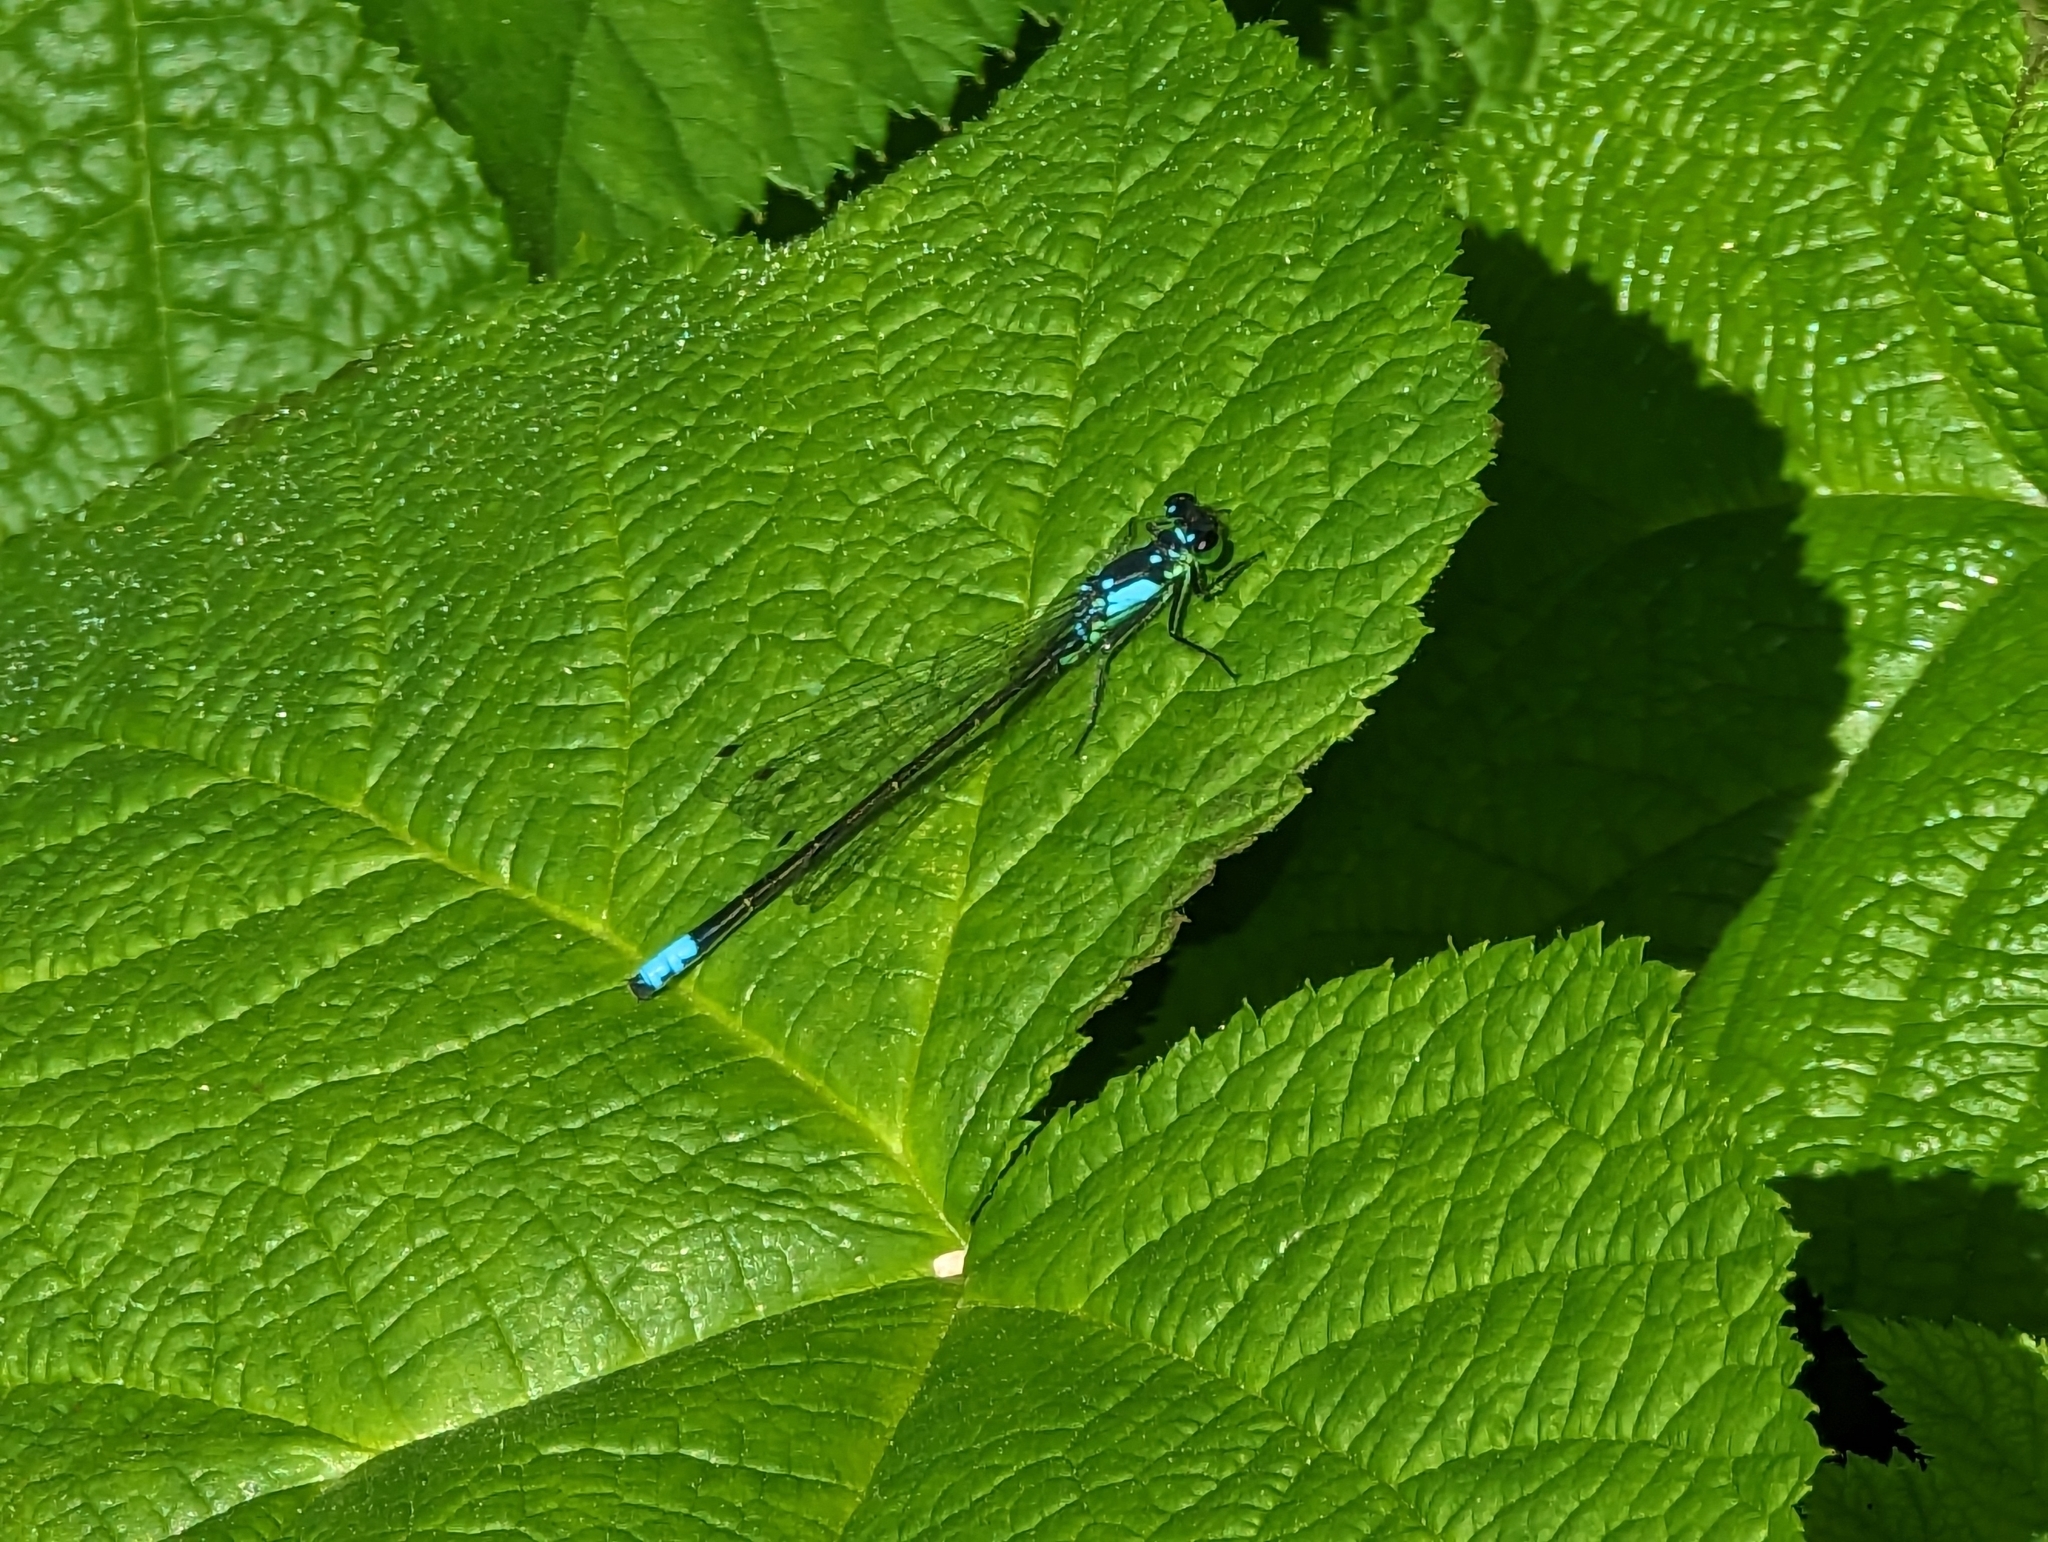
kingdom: Animalia
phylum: Arthropoda
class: Insecta
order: Odonata
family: Coenagrionidae
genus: Ischnura
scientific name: Ischnura cervula
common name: Pacific forktail
